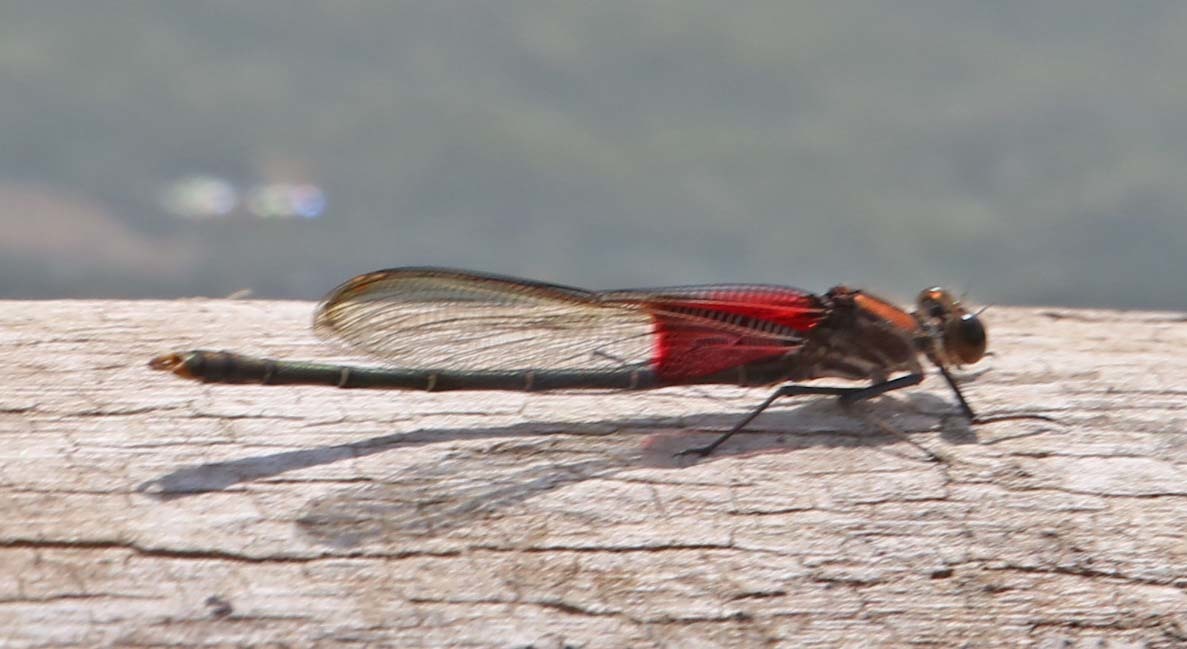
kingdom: Animalia
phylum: Arthropoda
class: Insecta
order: Odonata
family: Calopterygidae
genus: Hetaerina
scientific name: Hetaerina americana
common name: American rubyspot
